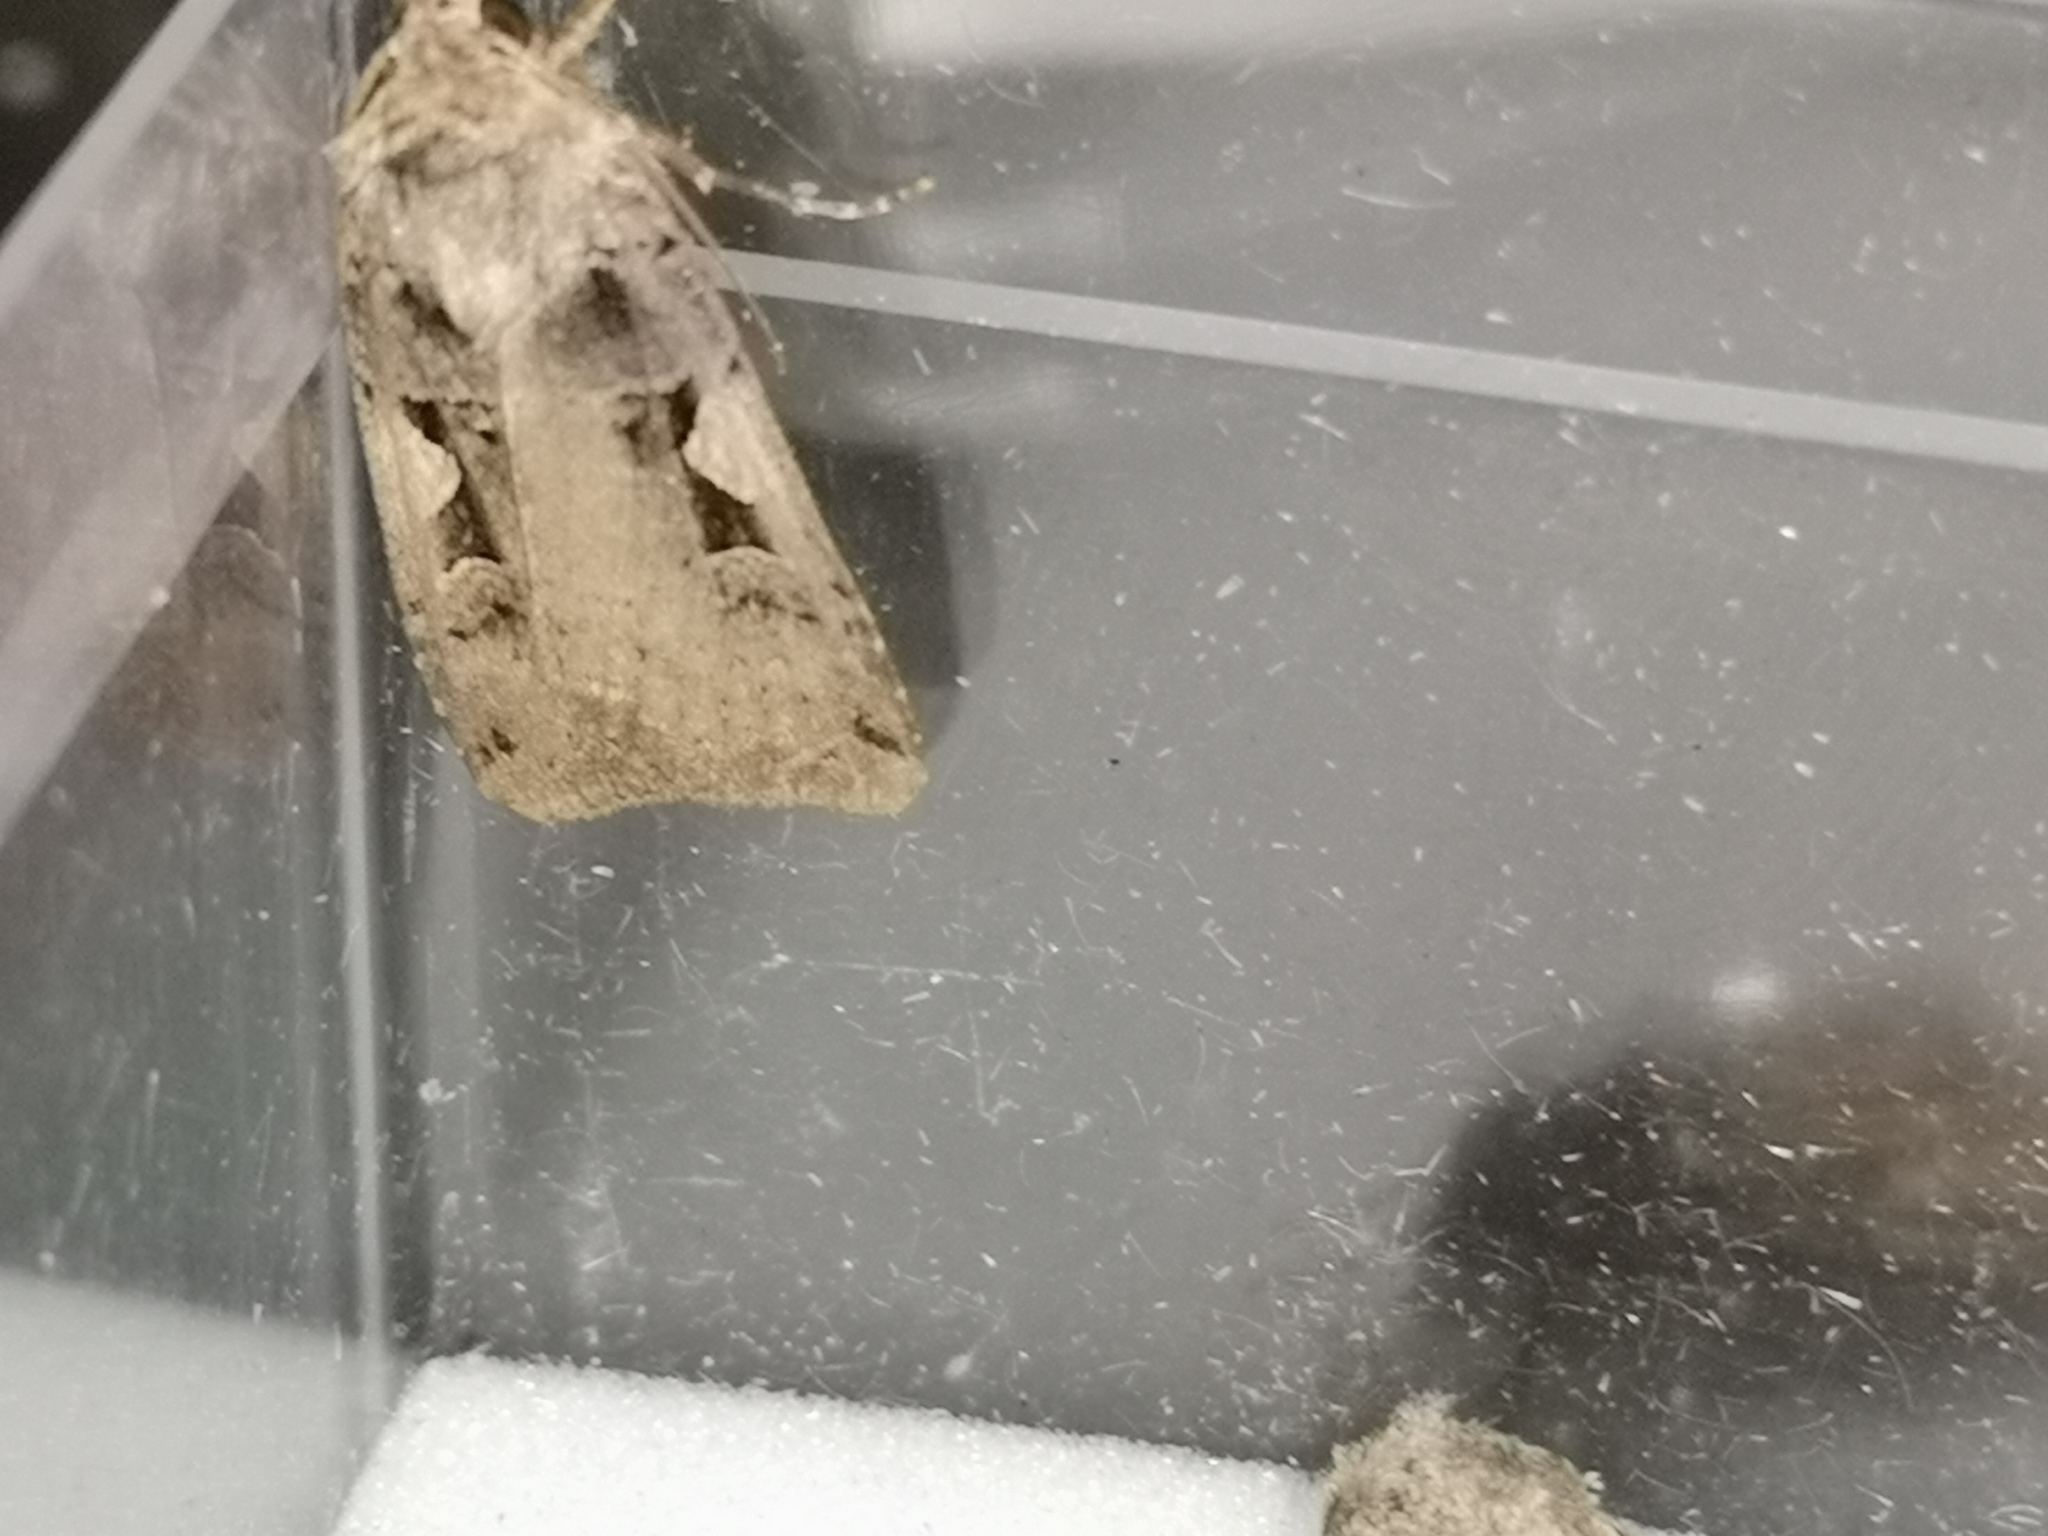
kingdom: Animalia
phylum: Arthropoda
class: Insecta
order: Lepidoptera
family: Noctuidae
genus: Xestia
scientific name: Xestia c-nigrum
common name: Setaceous hebrew character
